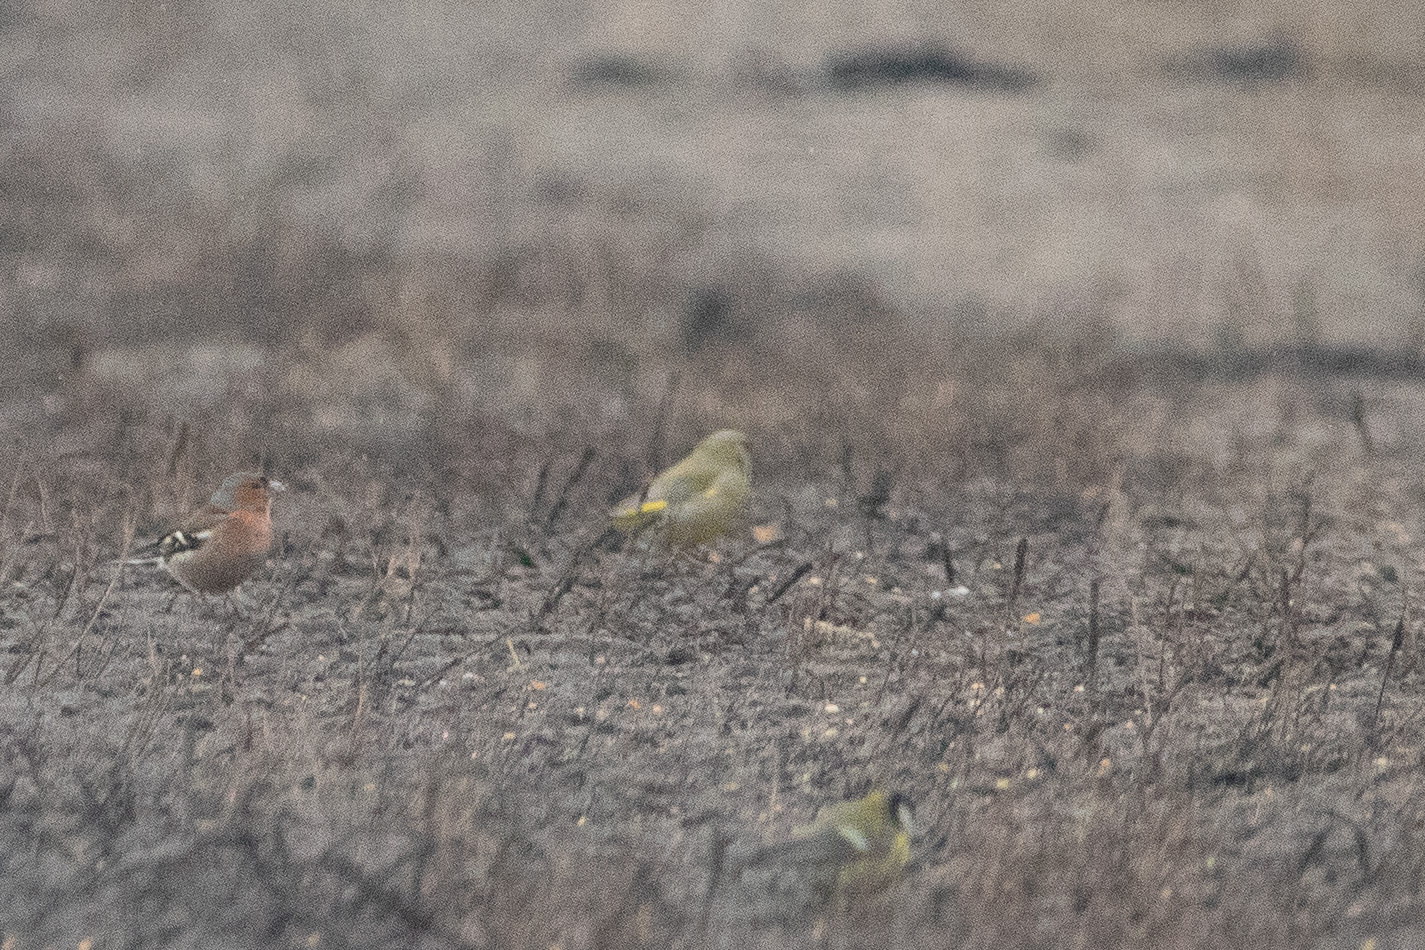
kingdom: Plantae
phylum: Tracheophyta
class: Liliopsida
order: Poales
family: Poaceae
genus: Chloris
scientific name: Chloris chloris
